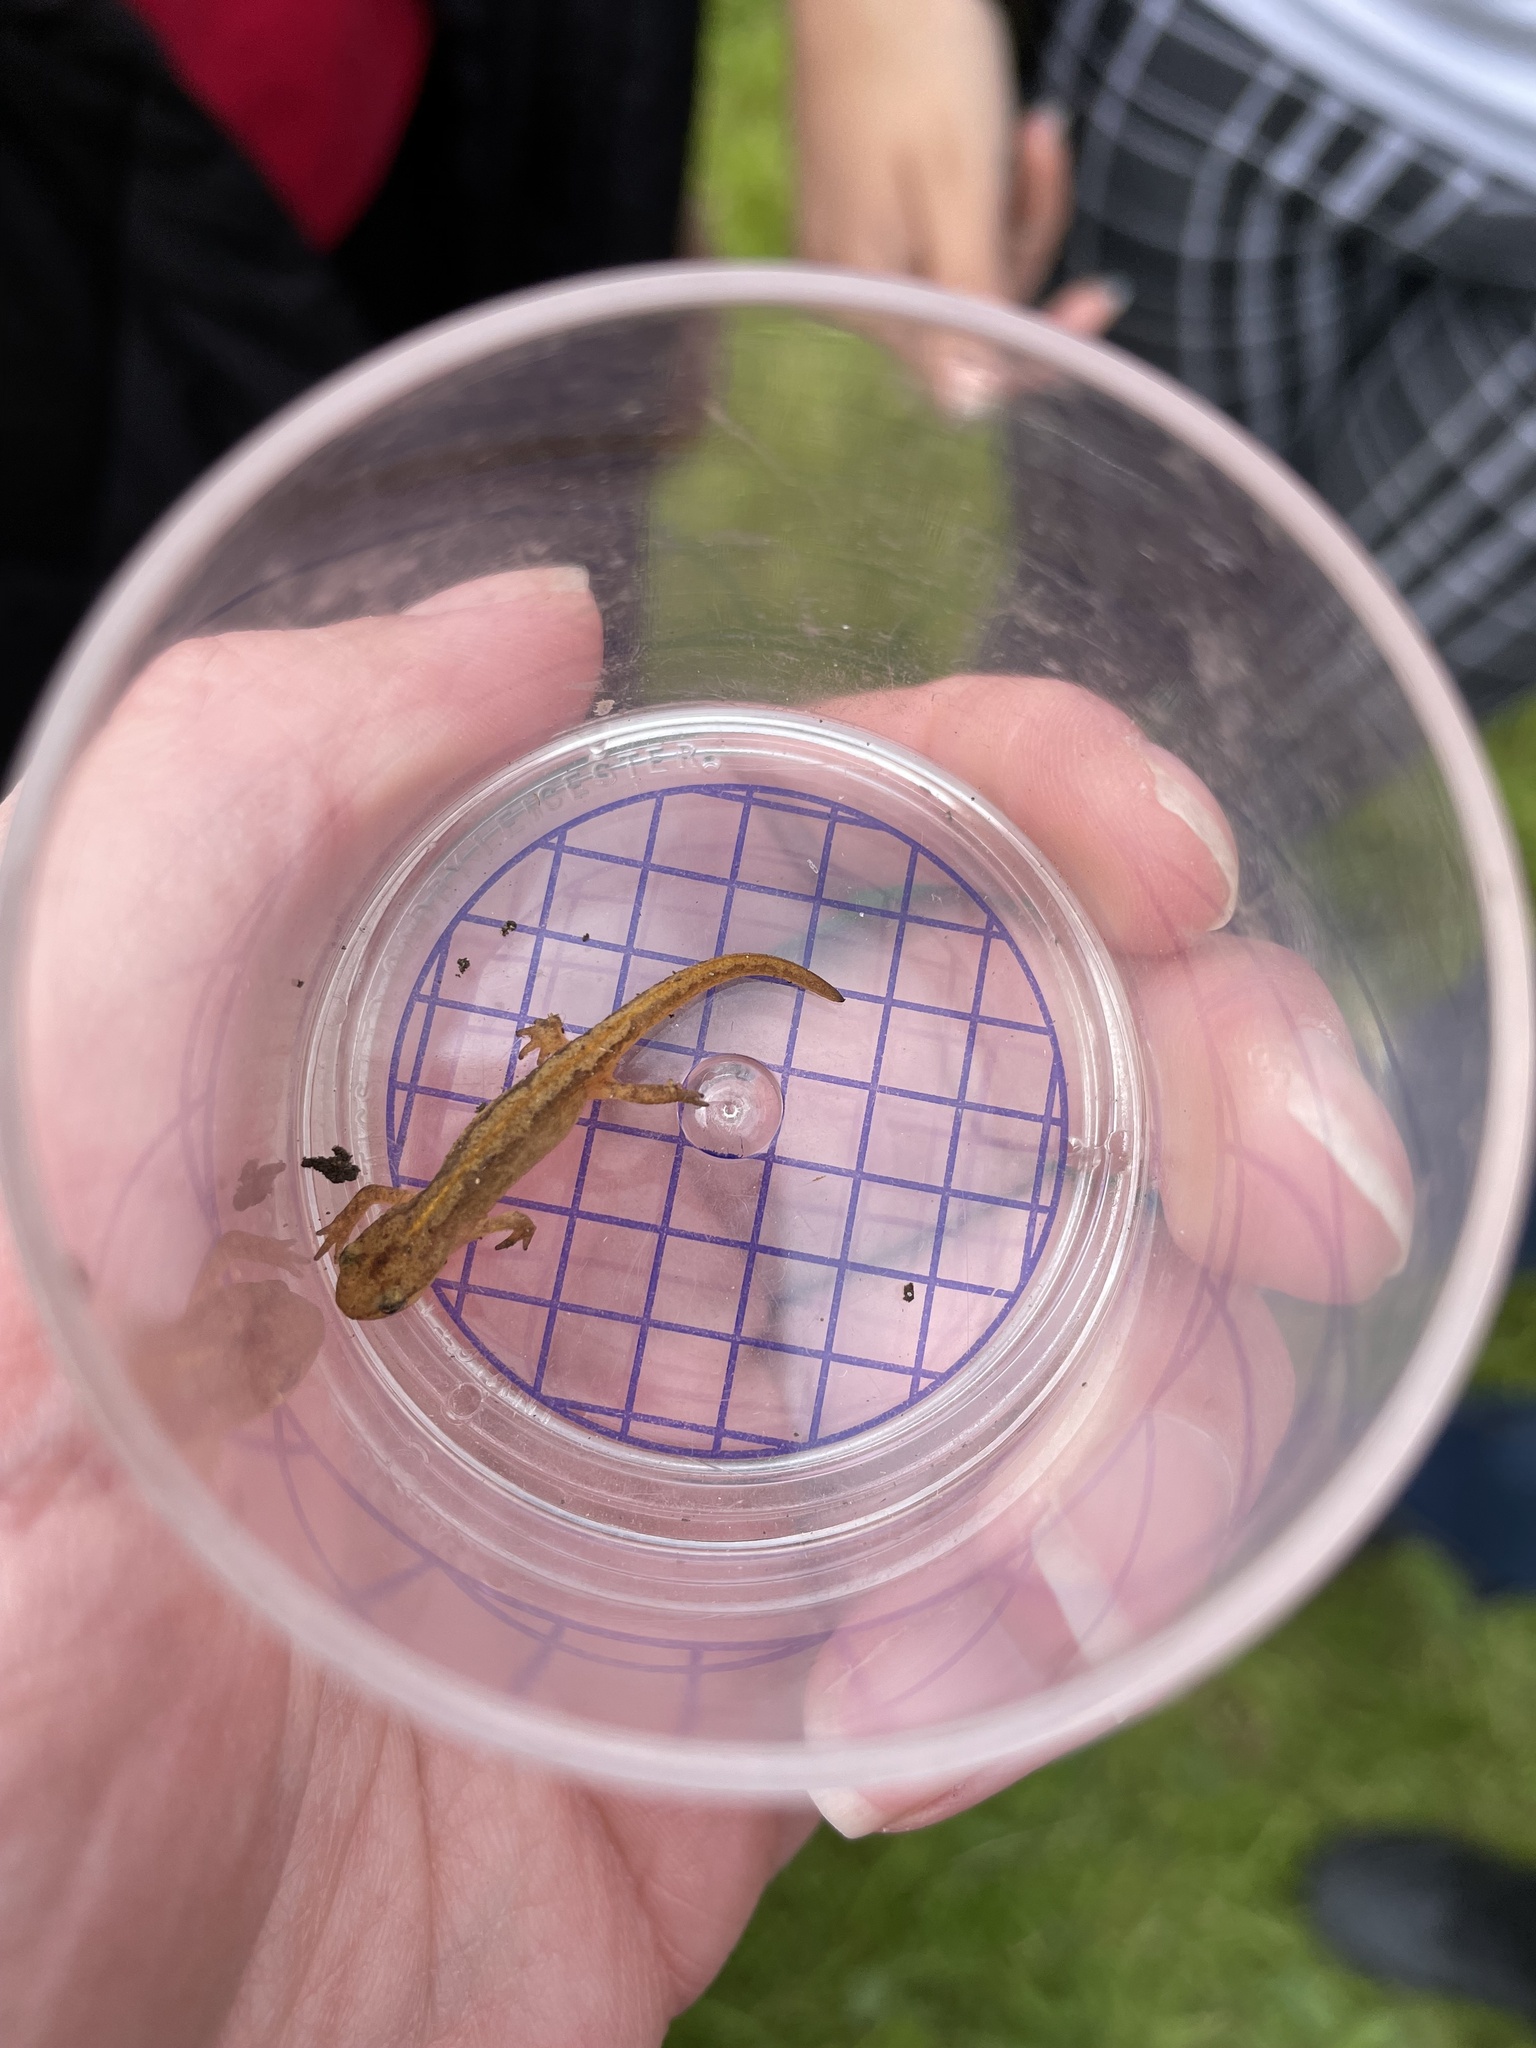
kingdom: Animalia
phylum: Chordata
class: Amphibia
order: Caudata
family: Salamandridae
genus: Lissotriton
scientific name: Lissotriton helveticus
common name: Palmate newt
